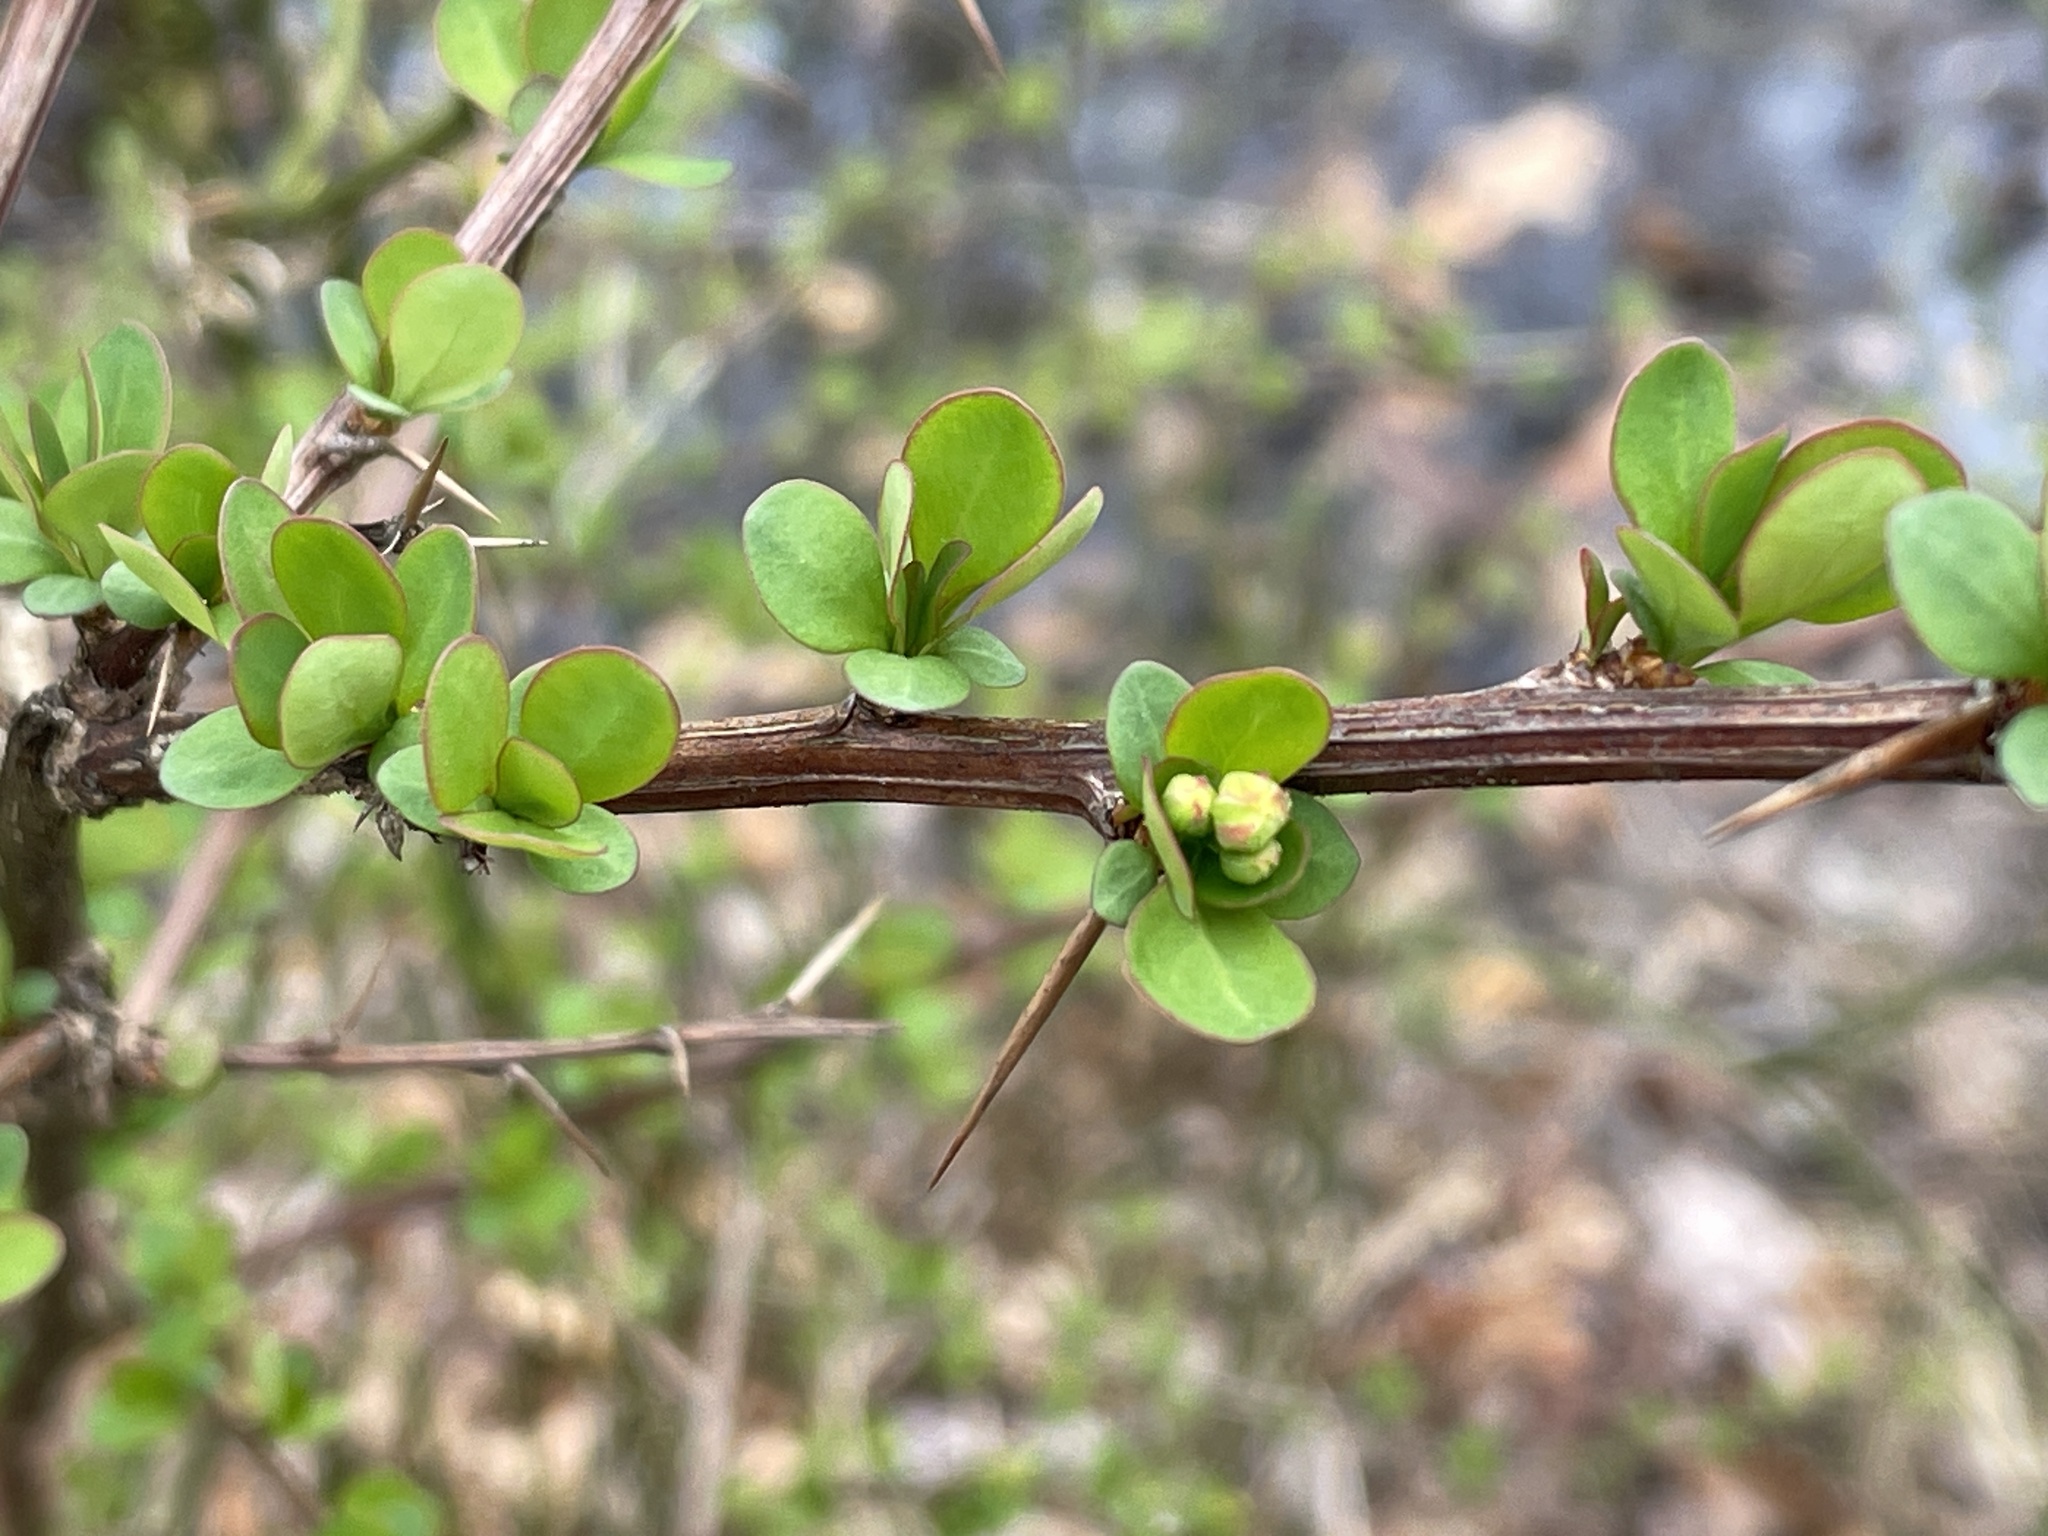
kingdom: Plantae
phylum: Tracheophyta
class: Magnoliopsida
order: Ranunculales
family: Berberidaceae
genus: Berberis
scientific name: Berberis thunbergii
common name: Japanese barberry
